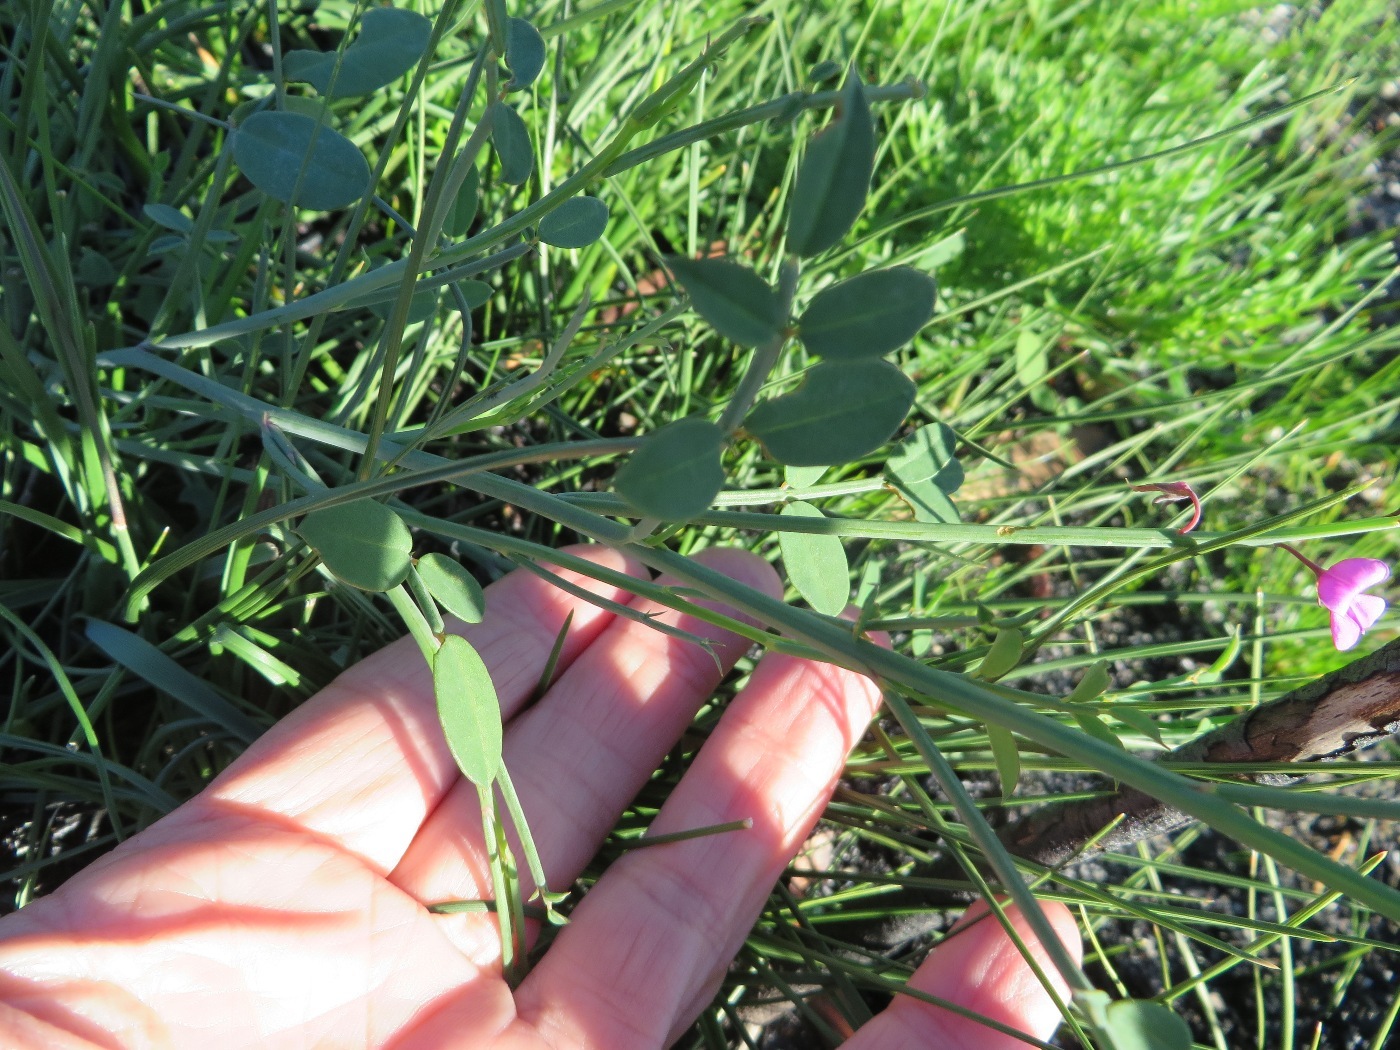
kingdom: Plantae
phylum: Tracheophyta
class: Magnoliopsida
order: Fabales
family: Fabaceae
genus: Indigofera
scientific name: Indigofera ionii
